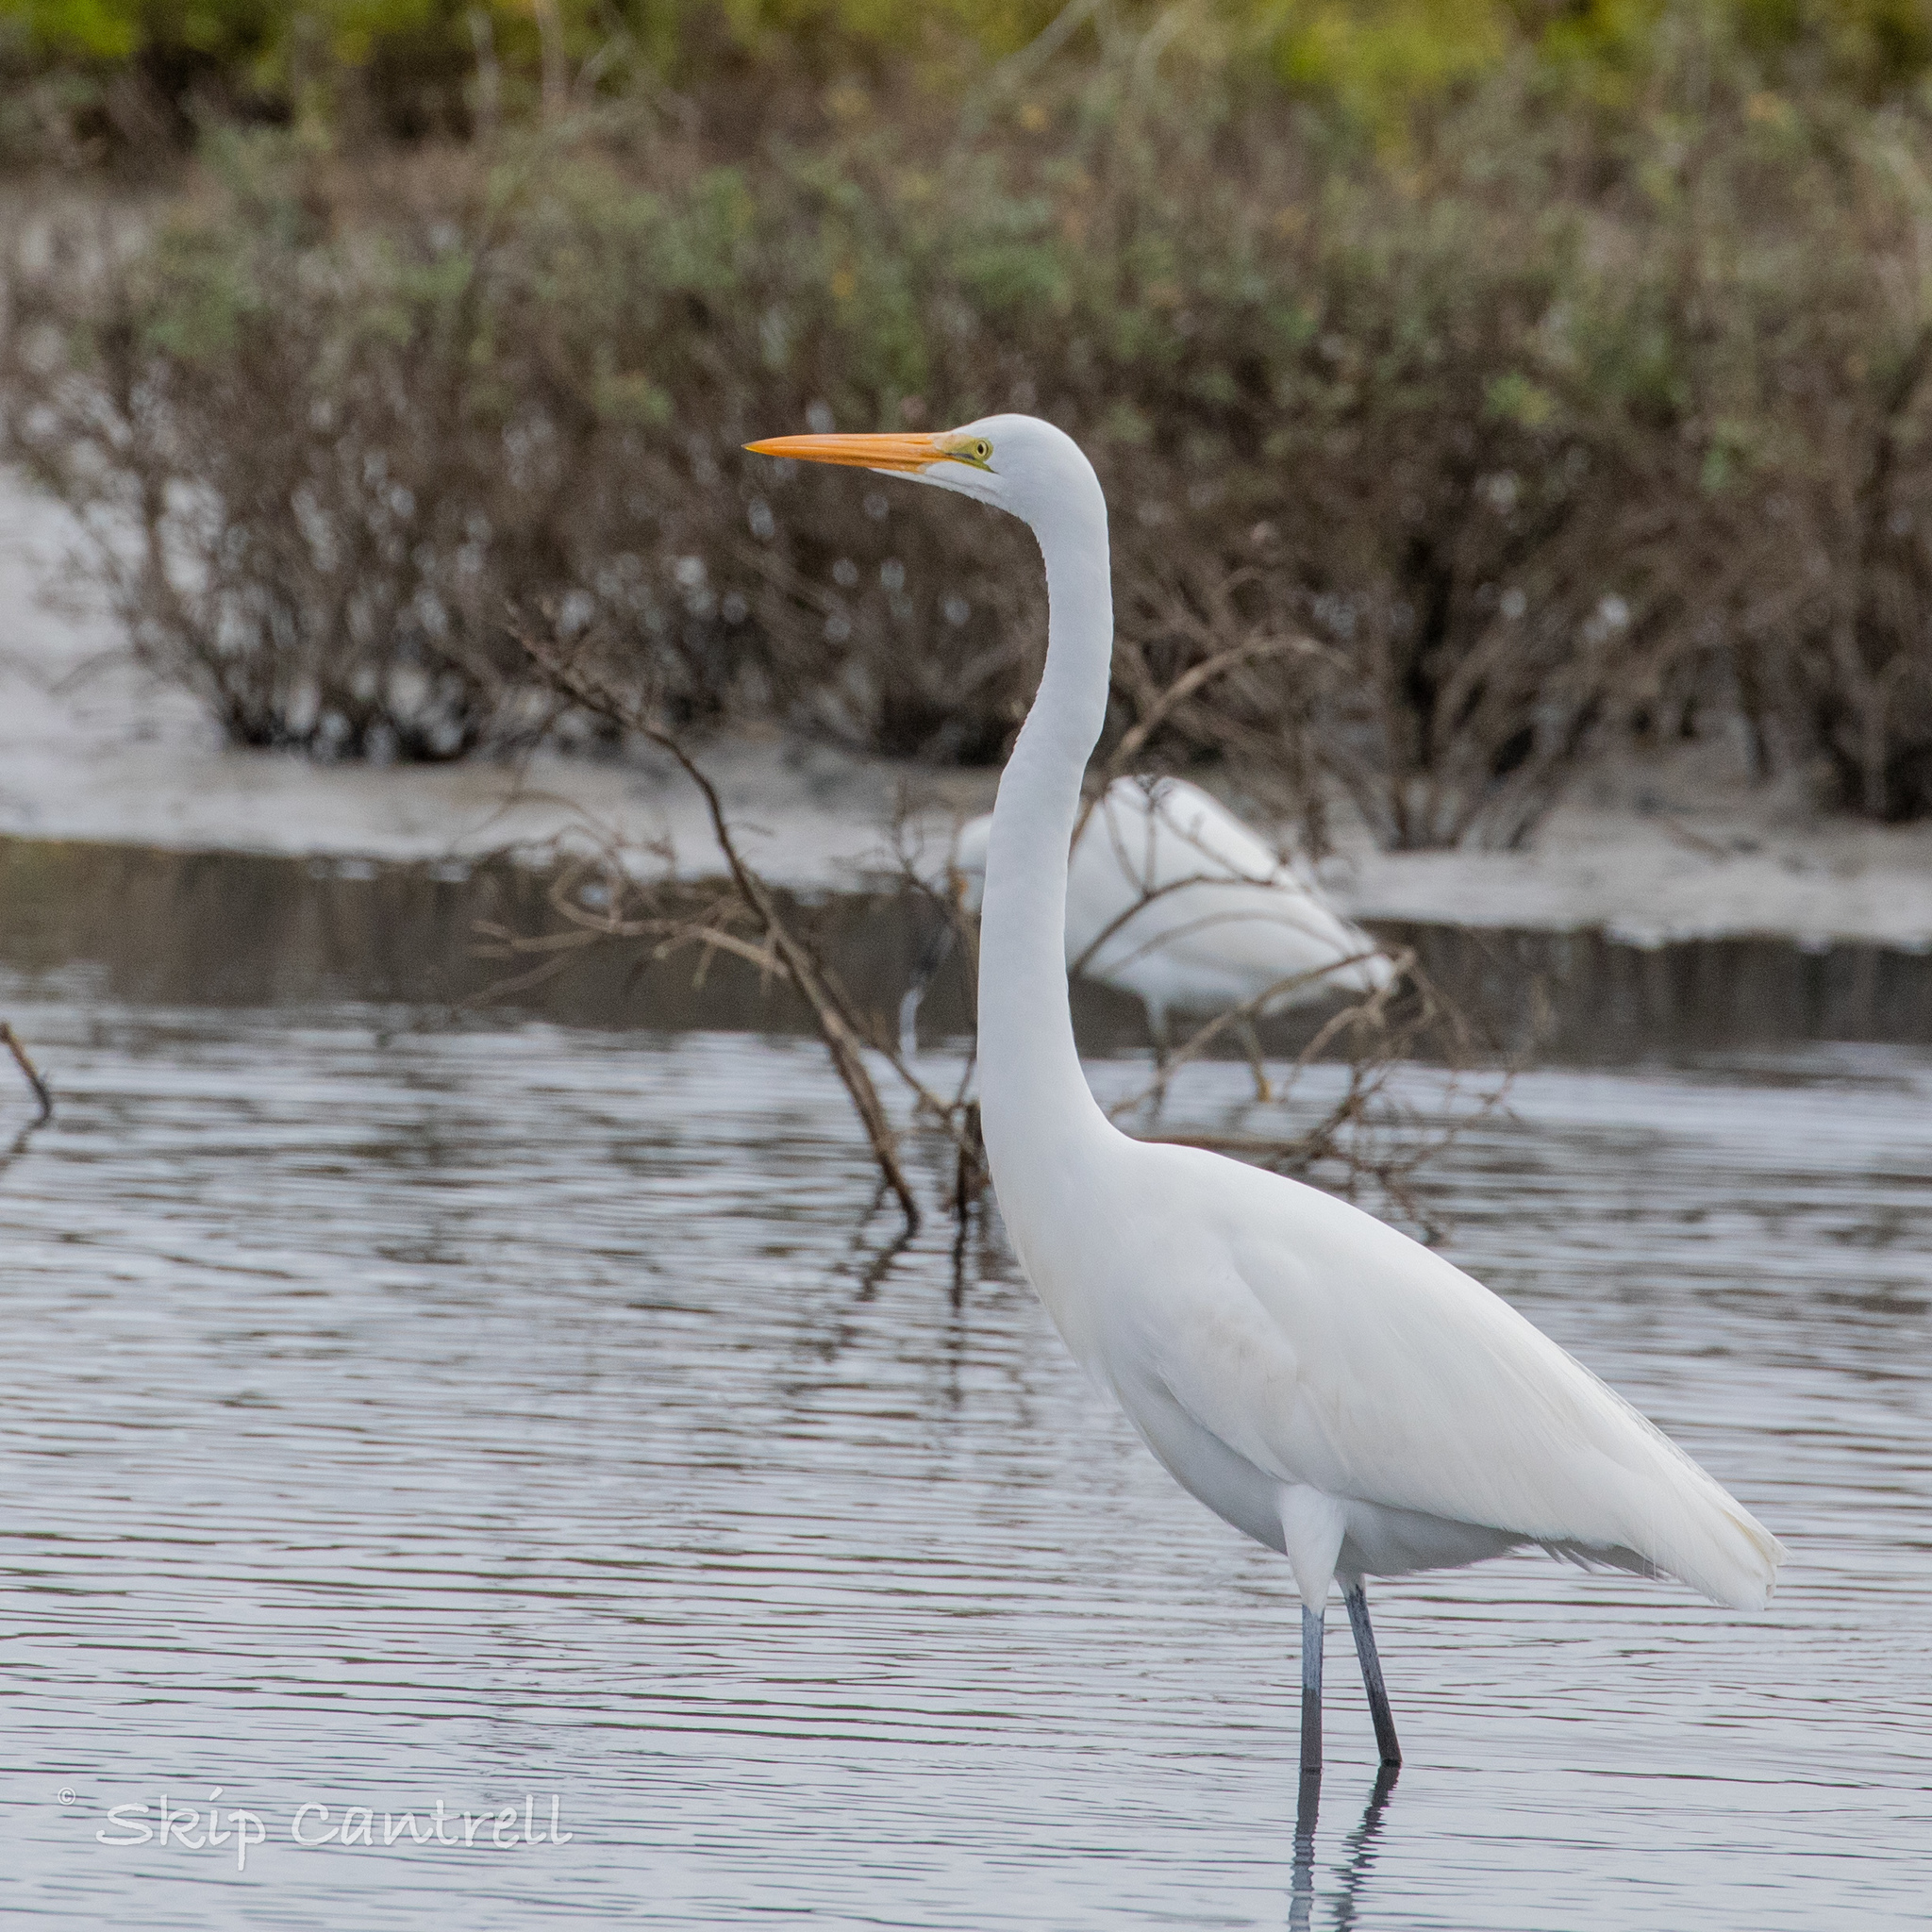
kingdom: Animalia
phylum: Chordata
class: Aves
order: Pelecaniformes
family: Ardeidae
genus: Ardea
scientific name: Ardea alba
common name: Great egret
